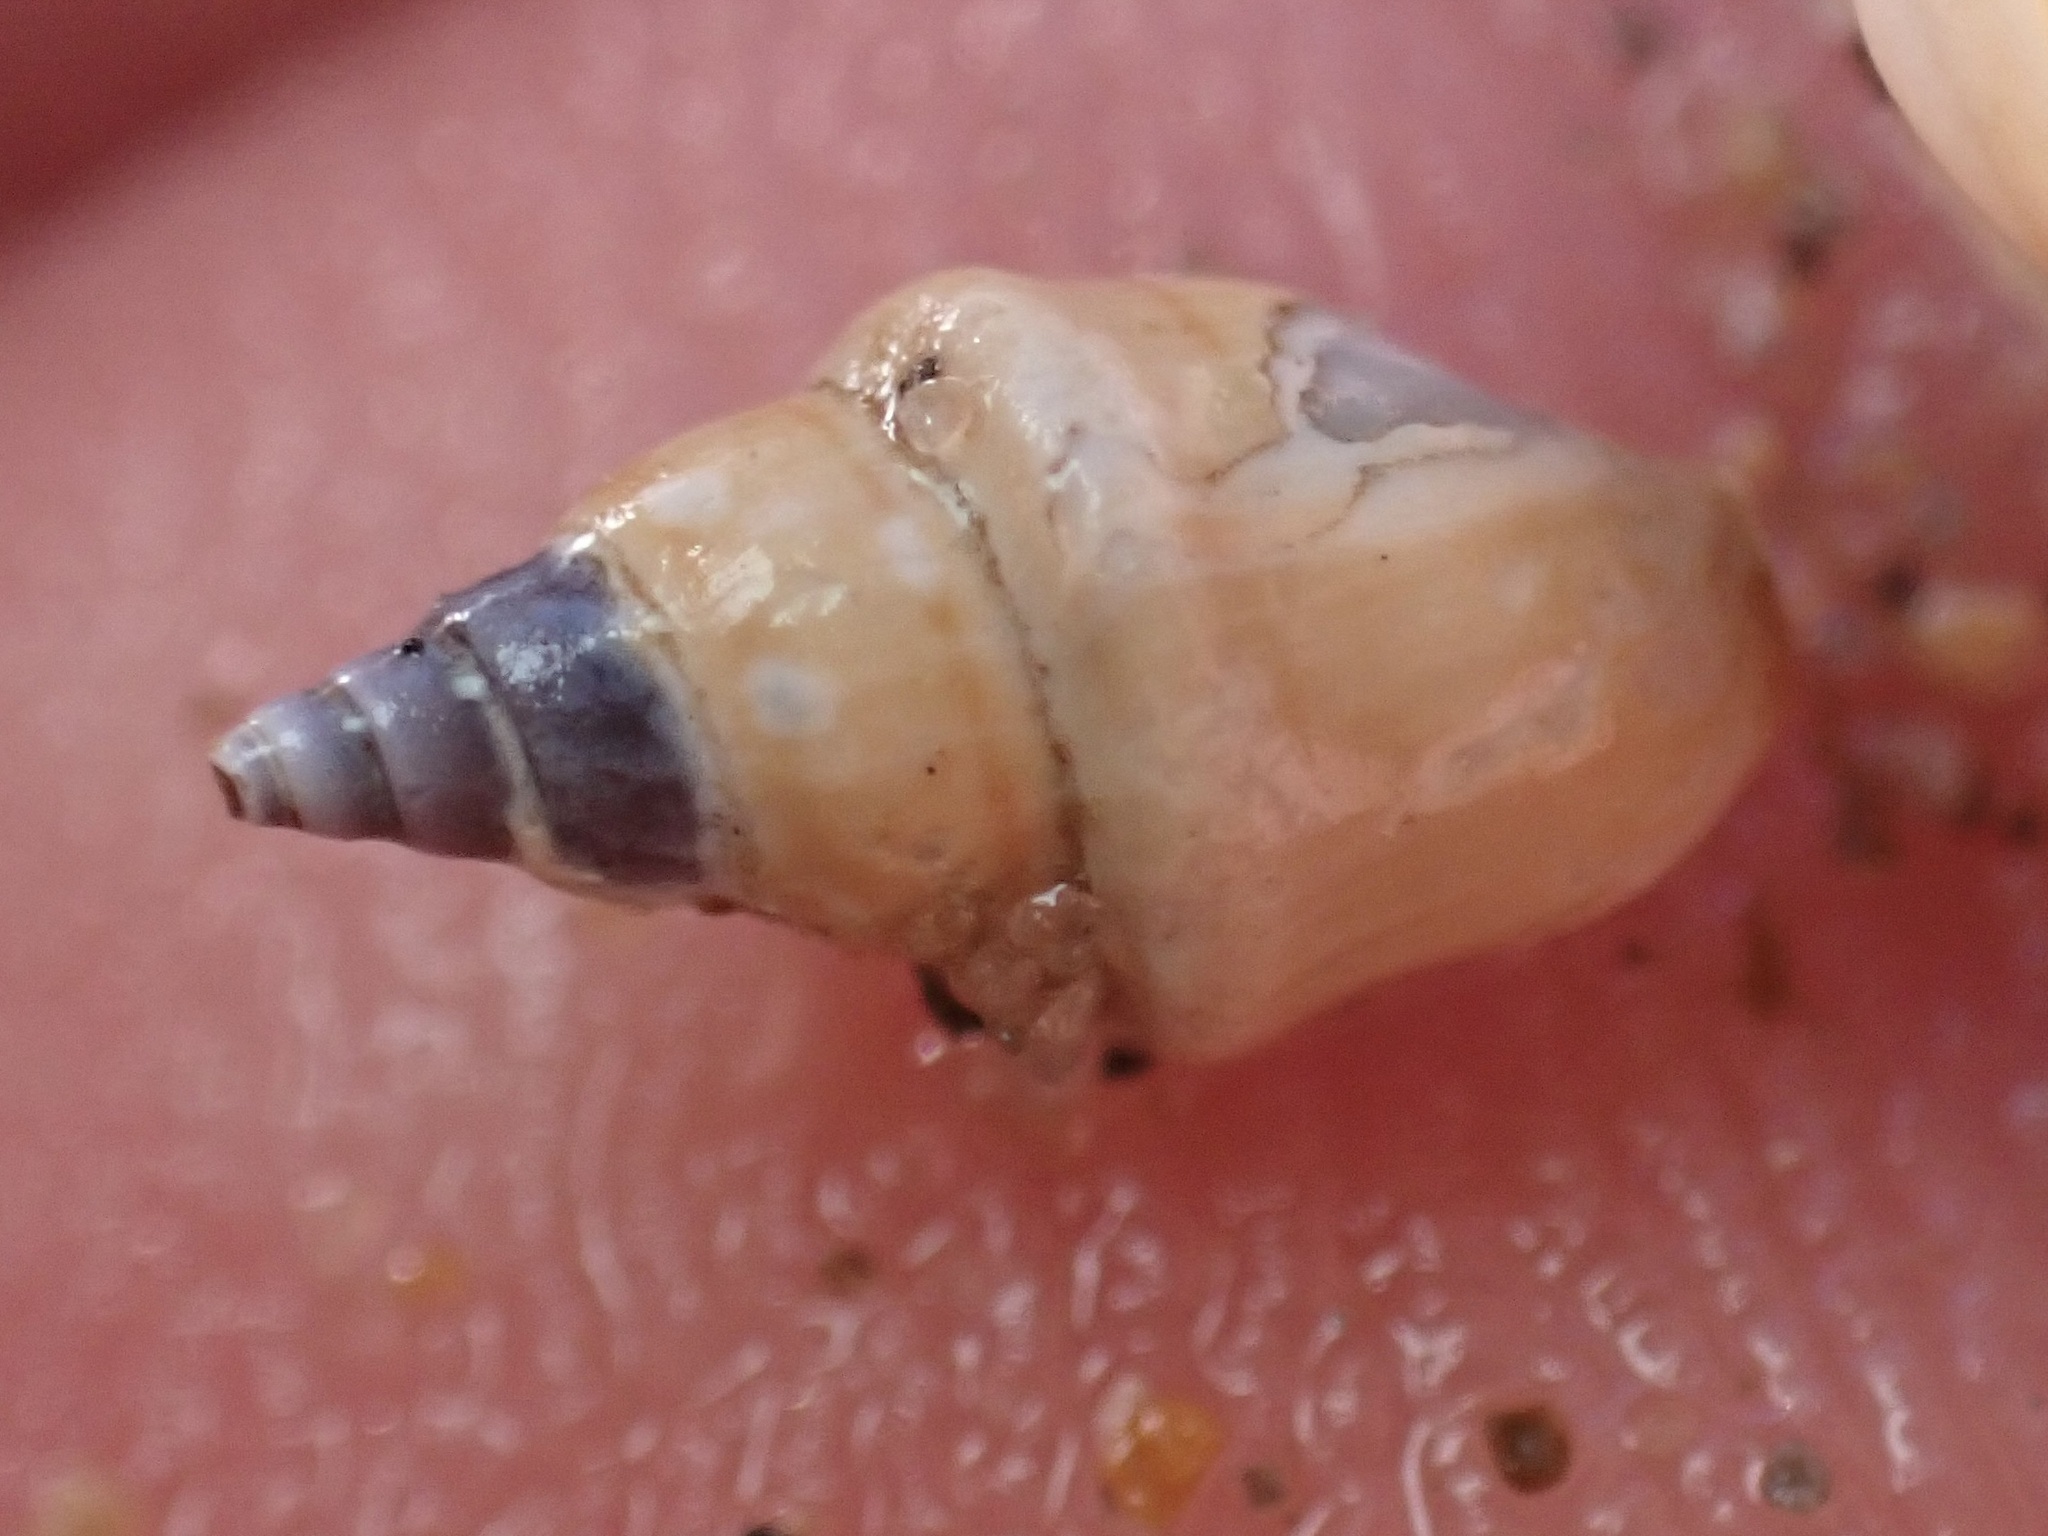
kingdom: Animalia
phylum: Mollusca
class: Gastropoda
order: Neogastropoda
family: Columbellidae
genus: Alia
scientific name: Alia carinata
